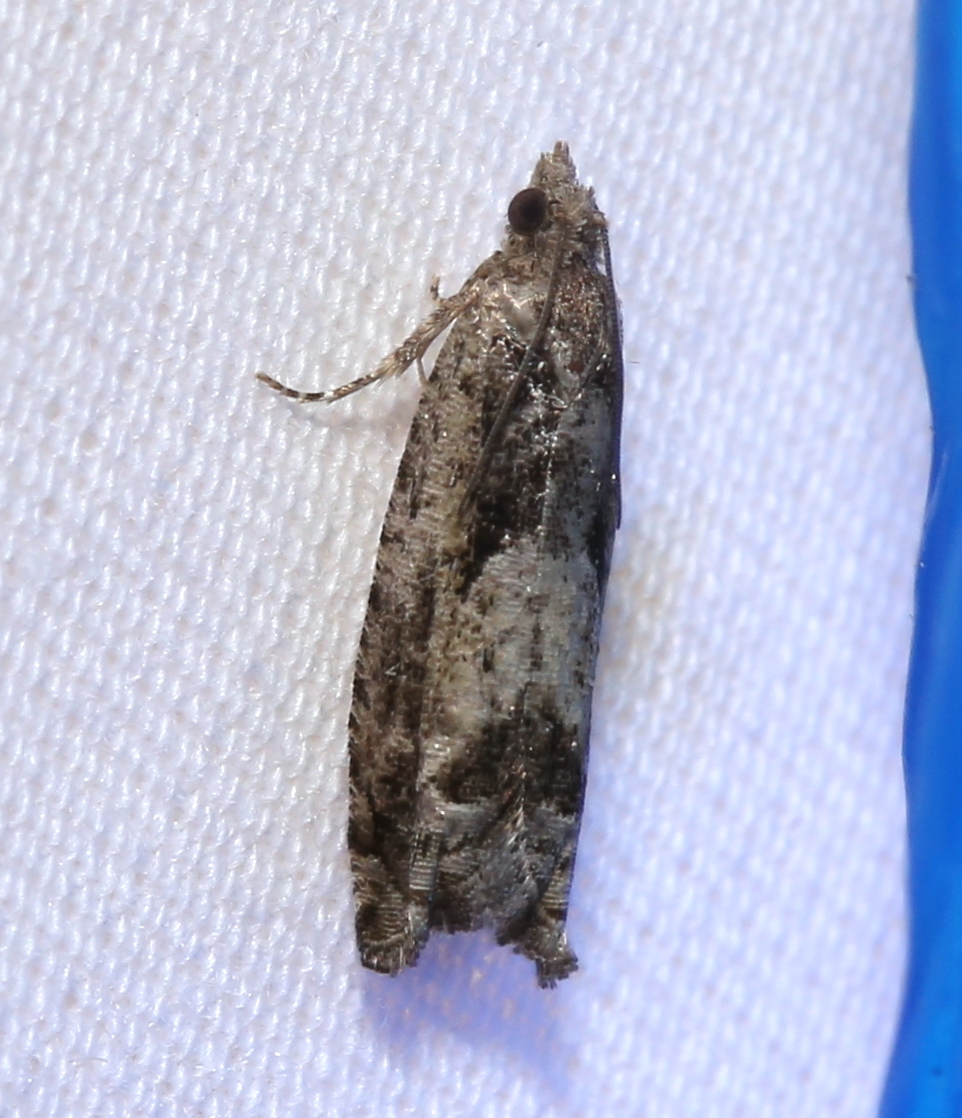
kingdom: Animalia
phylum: Arthropoda
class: Insecta
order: Lepidoptera
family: Tortricidae
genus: Pseudexentera
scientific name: Pseudexentera hodsoni
